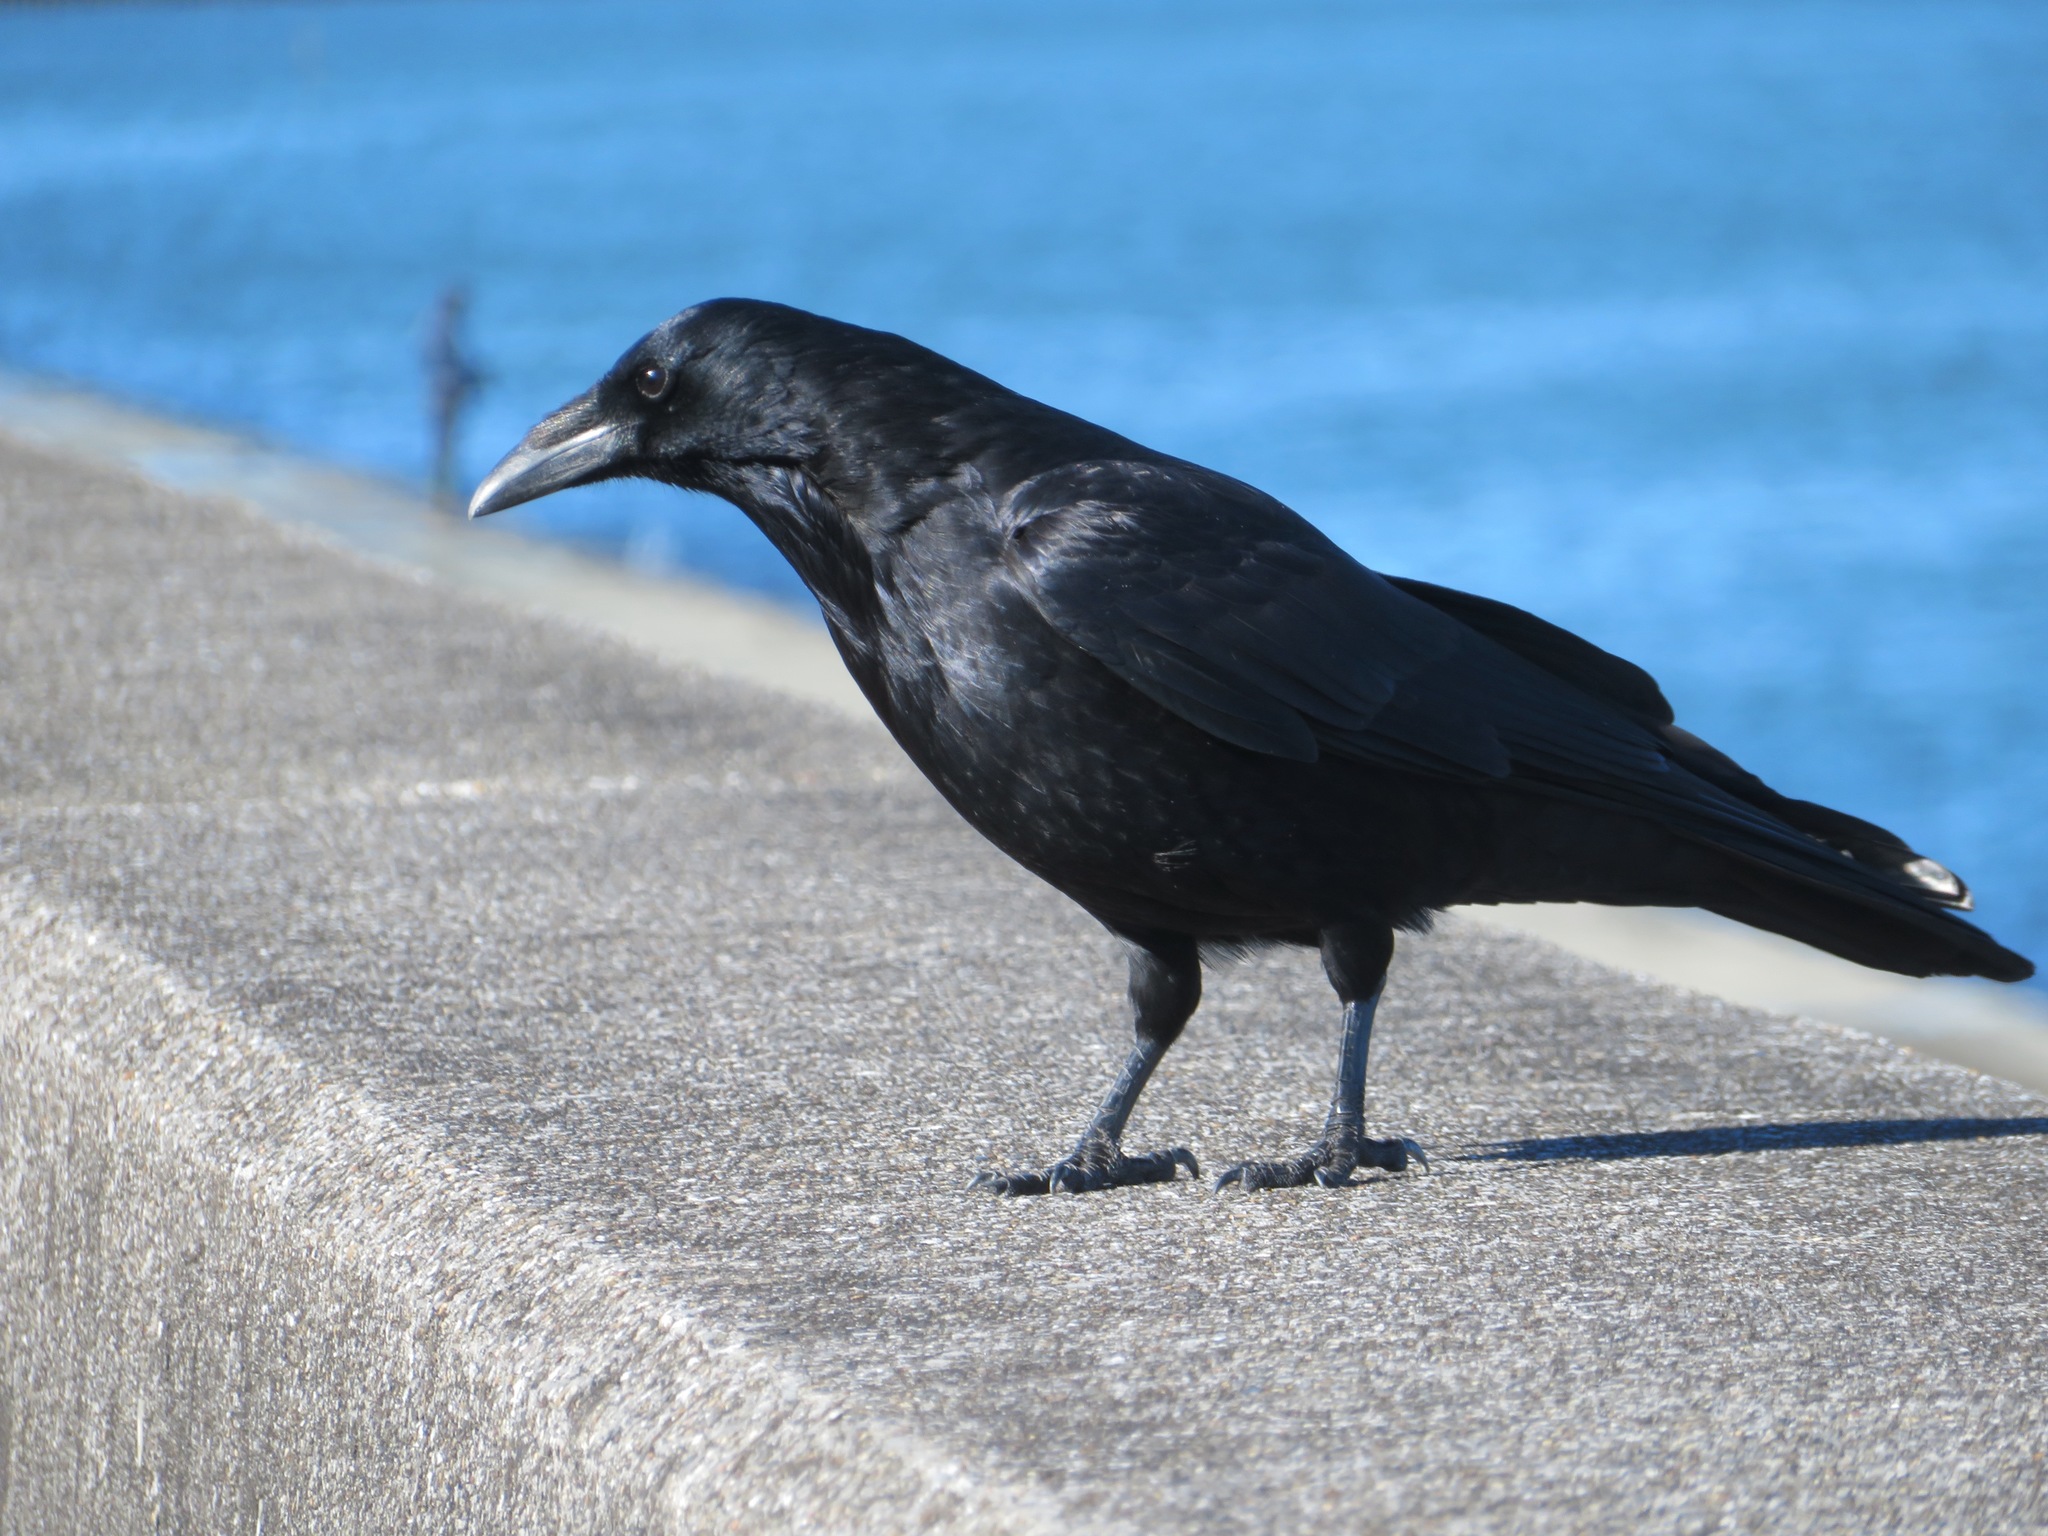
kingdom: Animalia
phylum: Chordata
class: Aves
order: Passeriformes
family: Corvidae
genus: Corvus
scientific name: Corvus corone
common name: Carrion crow
